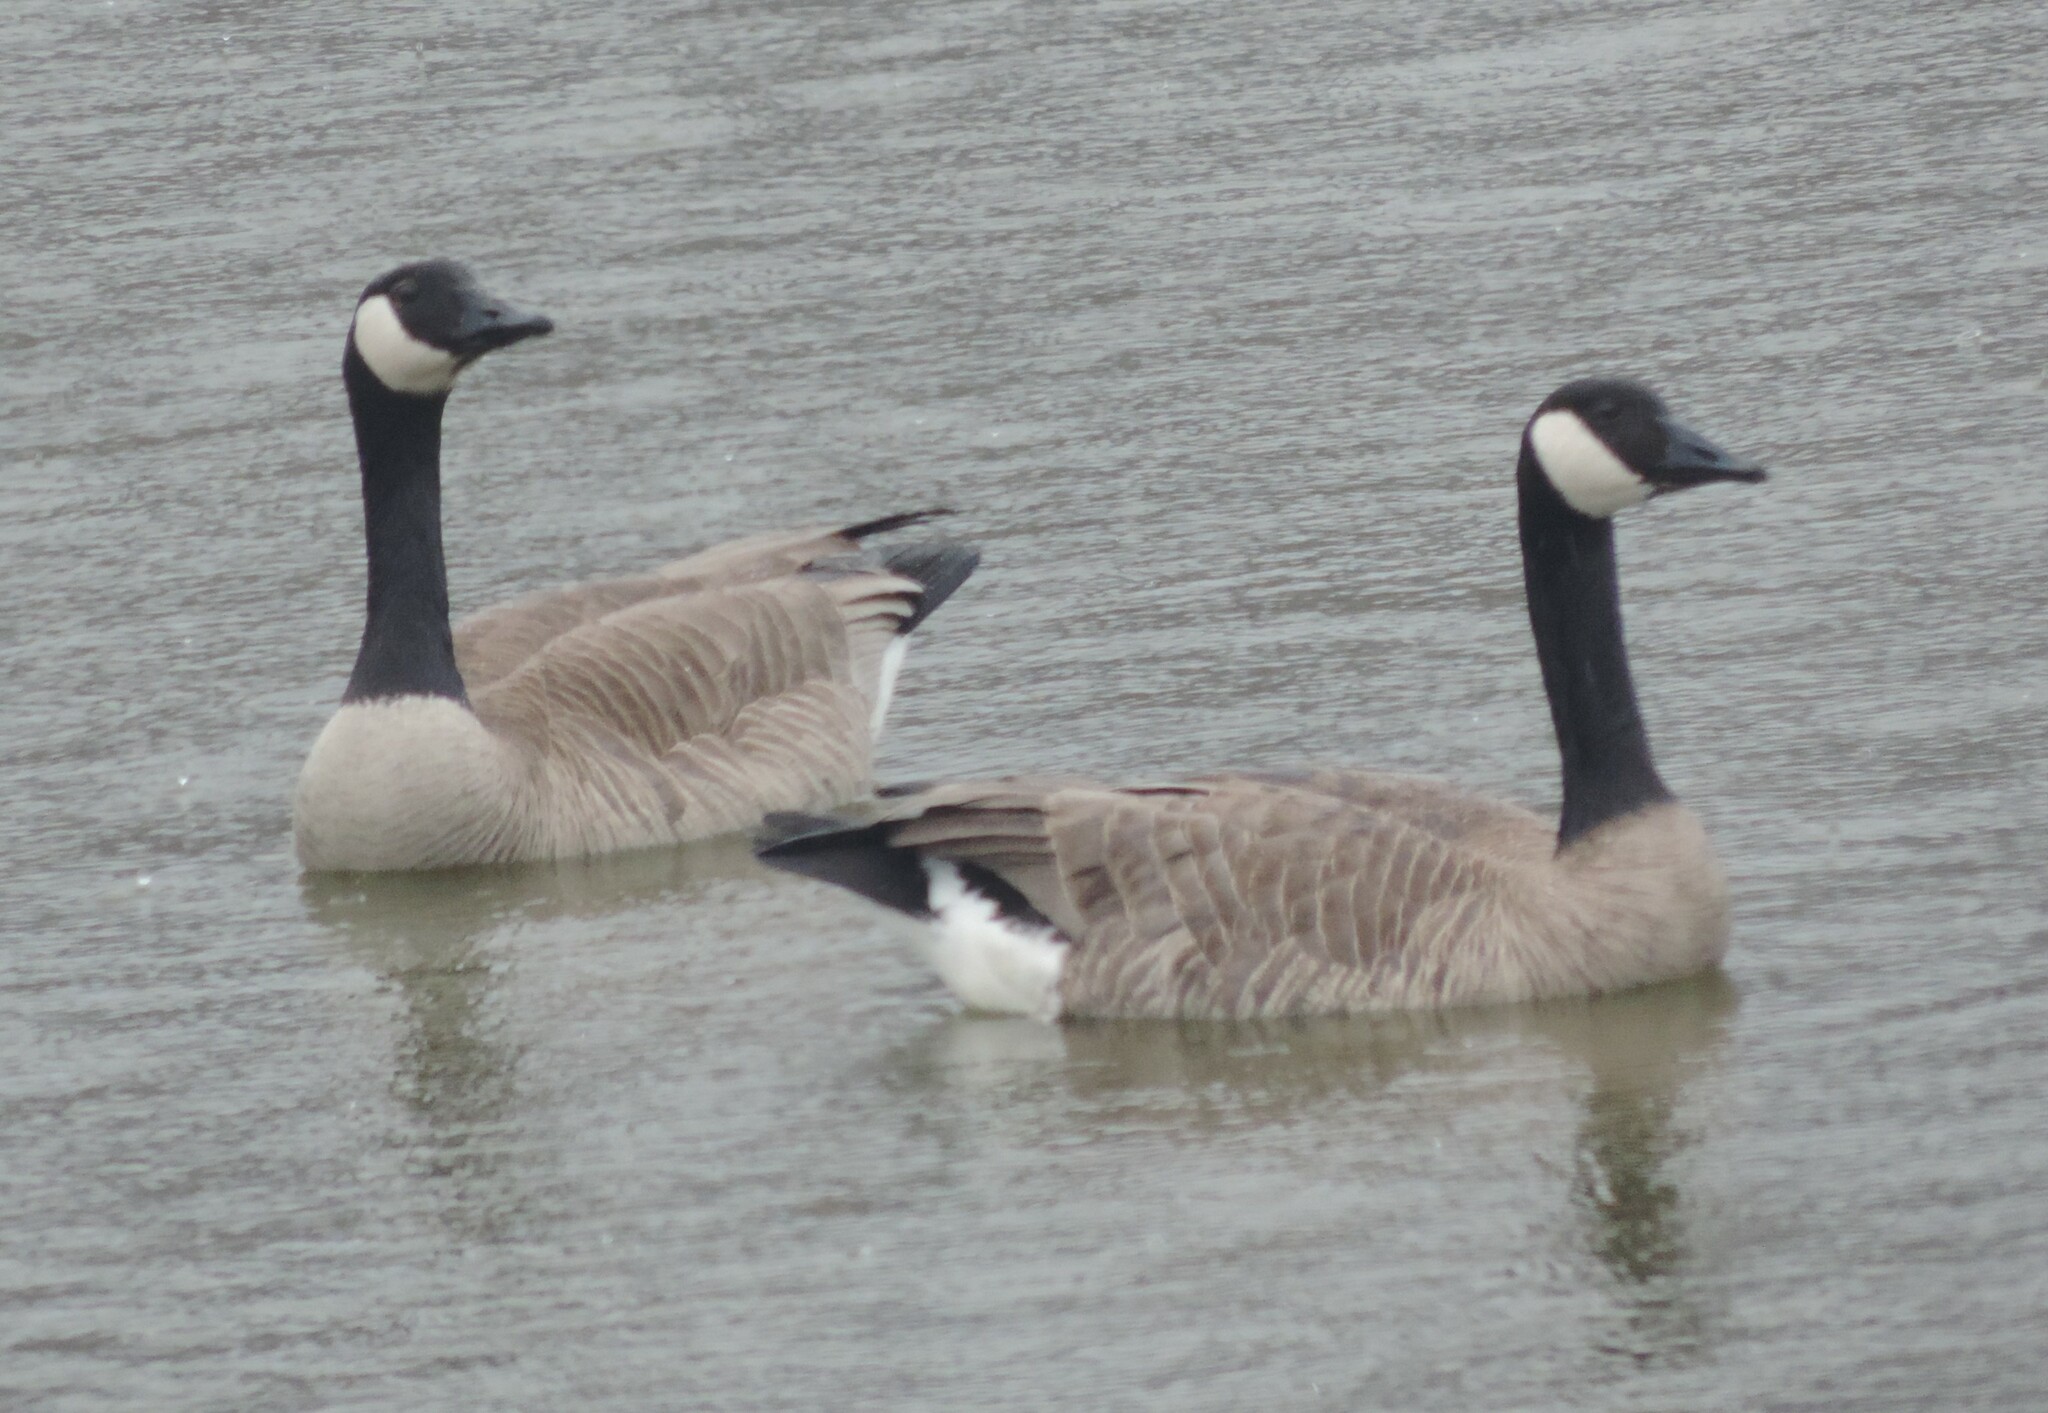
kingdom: Animalia
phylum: Chordata
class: Aves
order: Anseriformes
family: Anatidae
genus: Branta
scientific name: Branta canadensis
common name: Canada goose
